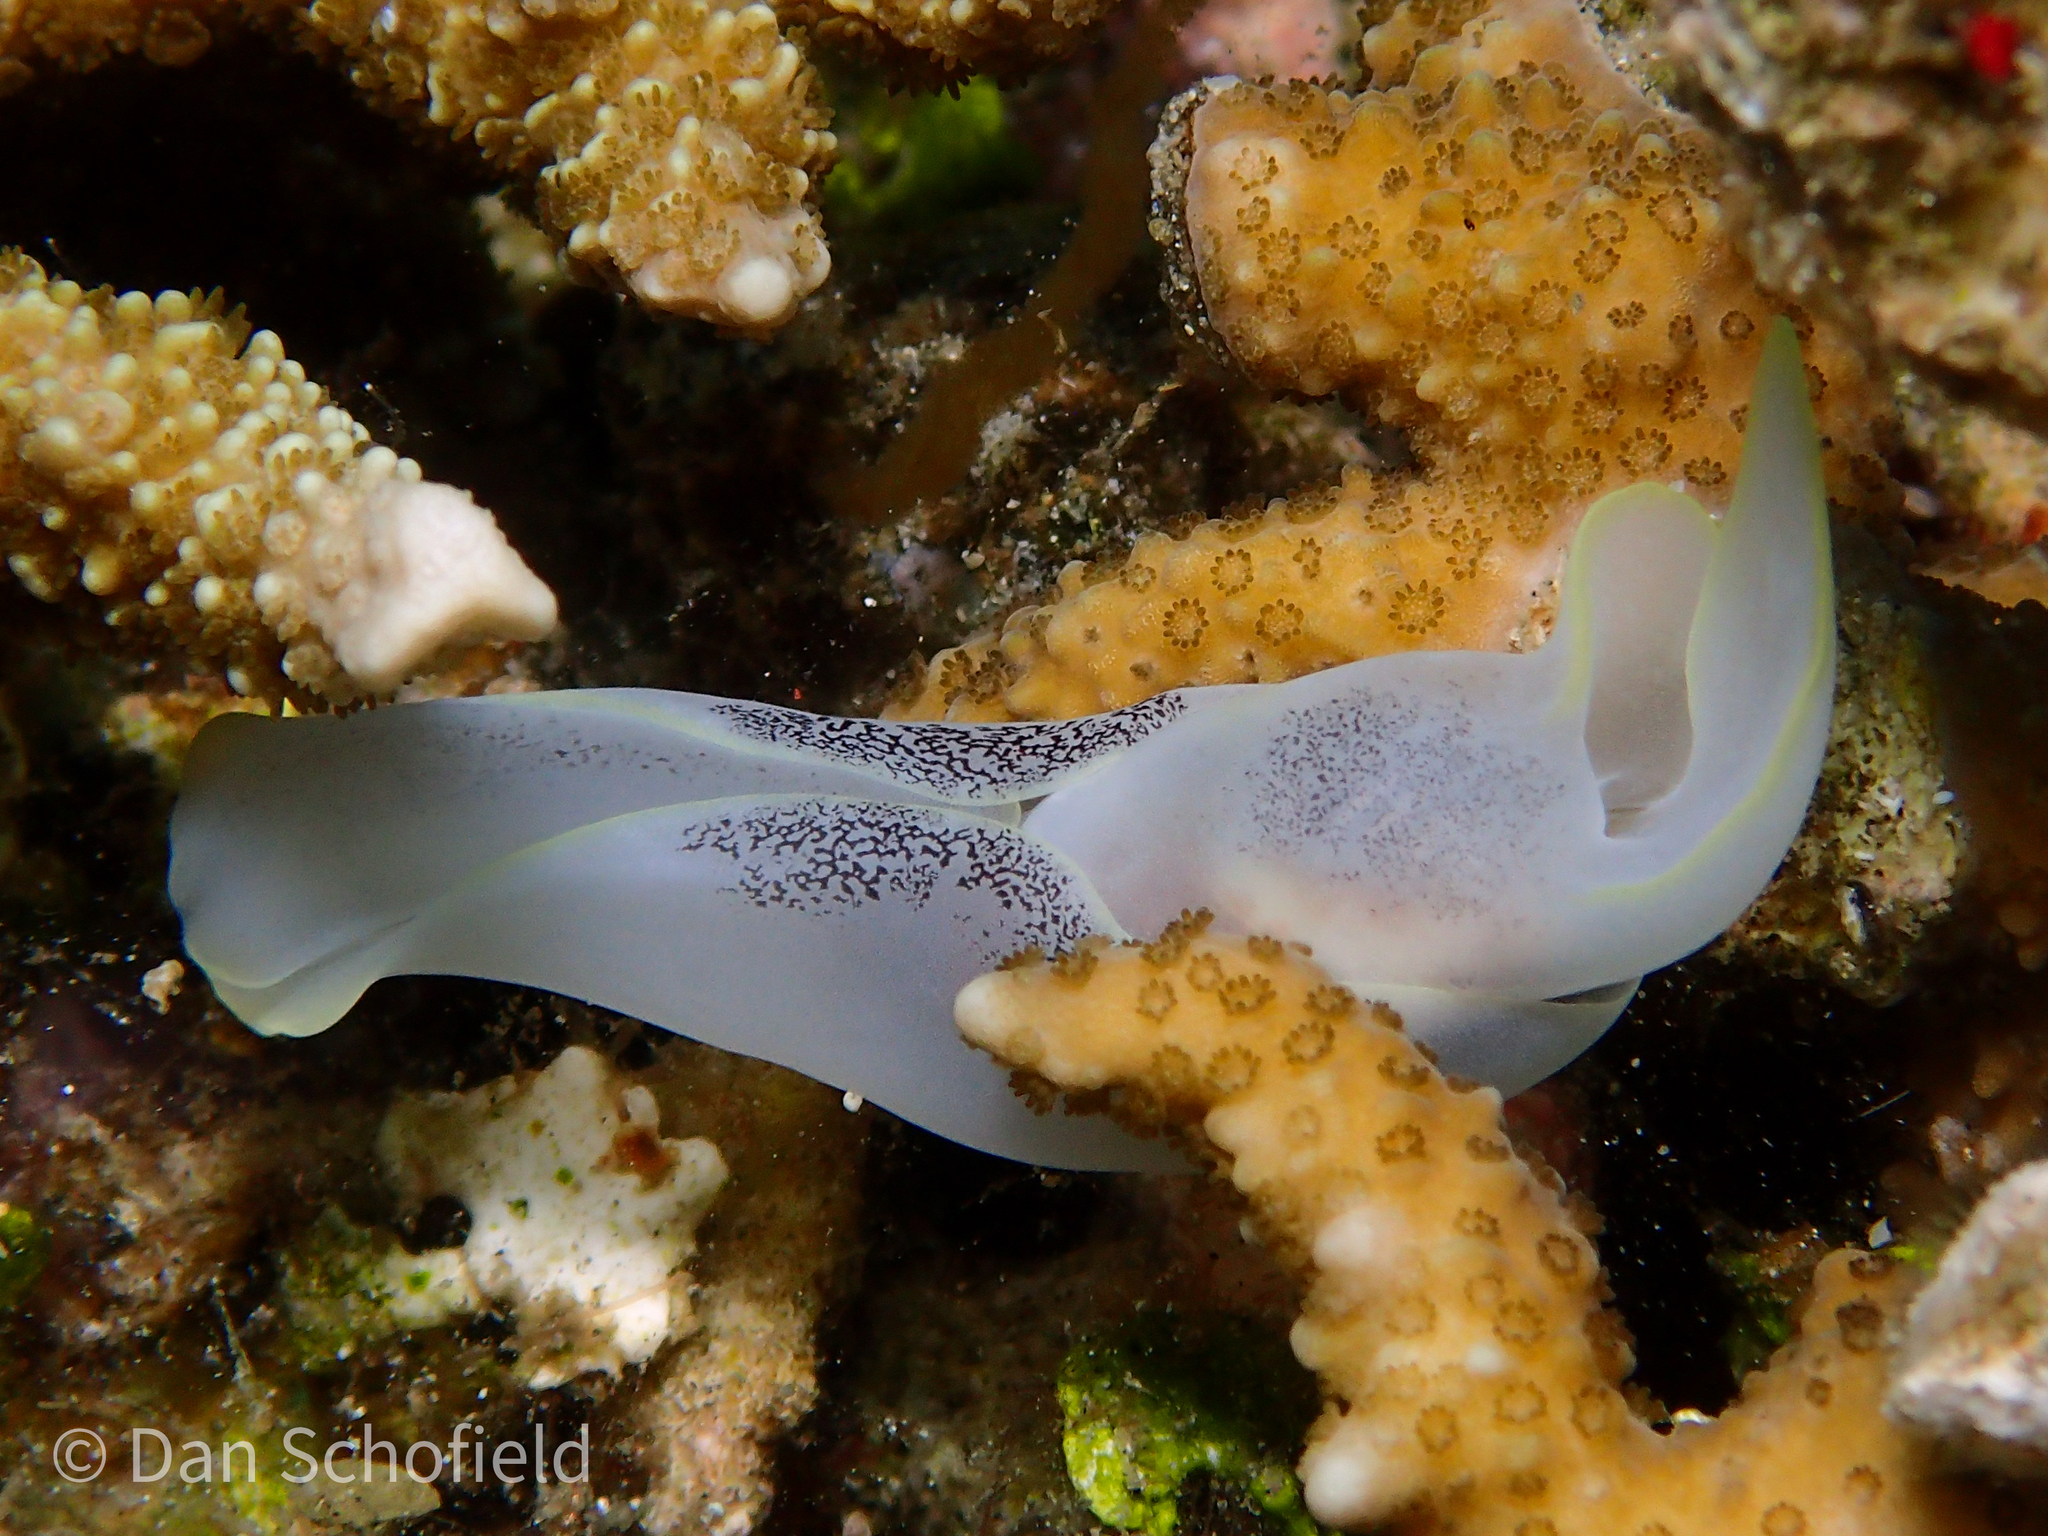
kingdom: Animalia
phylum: Mollusca
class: Gastropoda
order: Cephalaspidea
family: Aglajidae
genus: Chelidonura
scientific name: Chelidonura amoena
